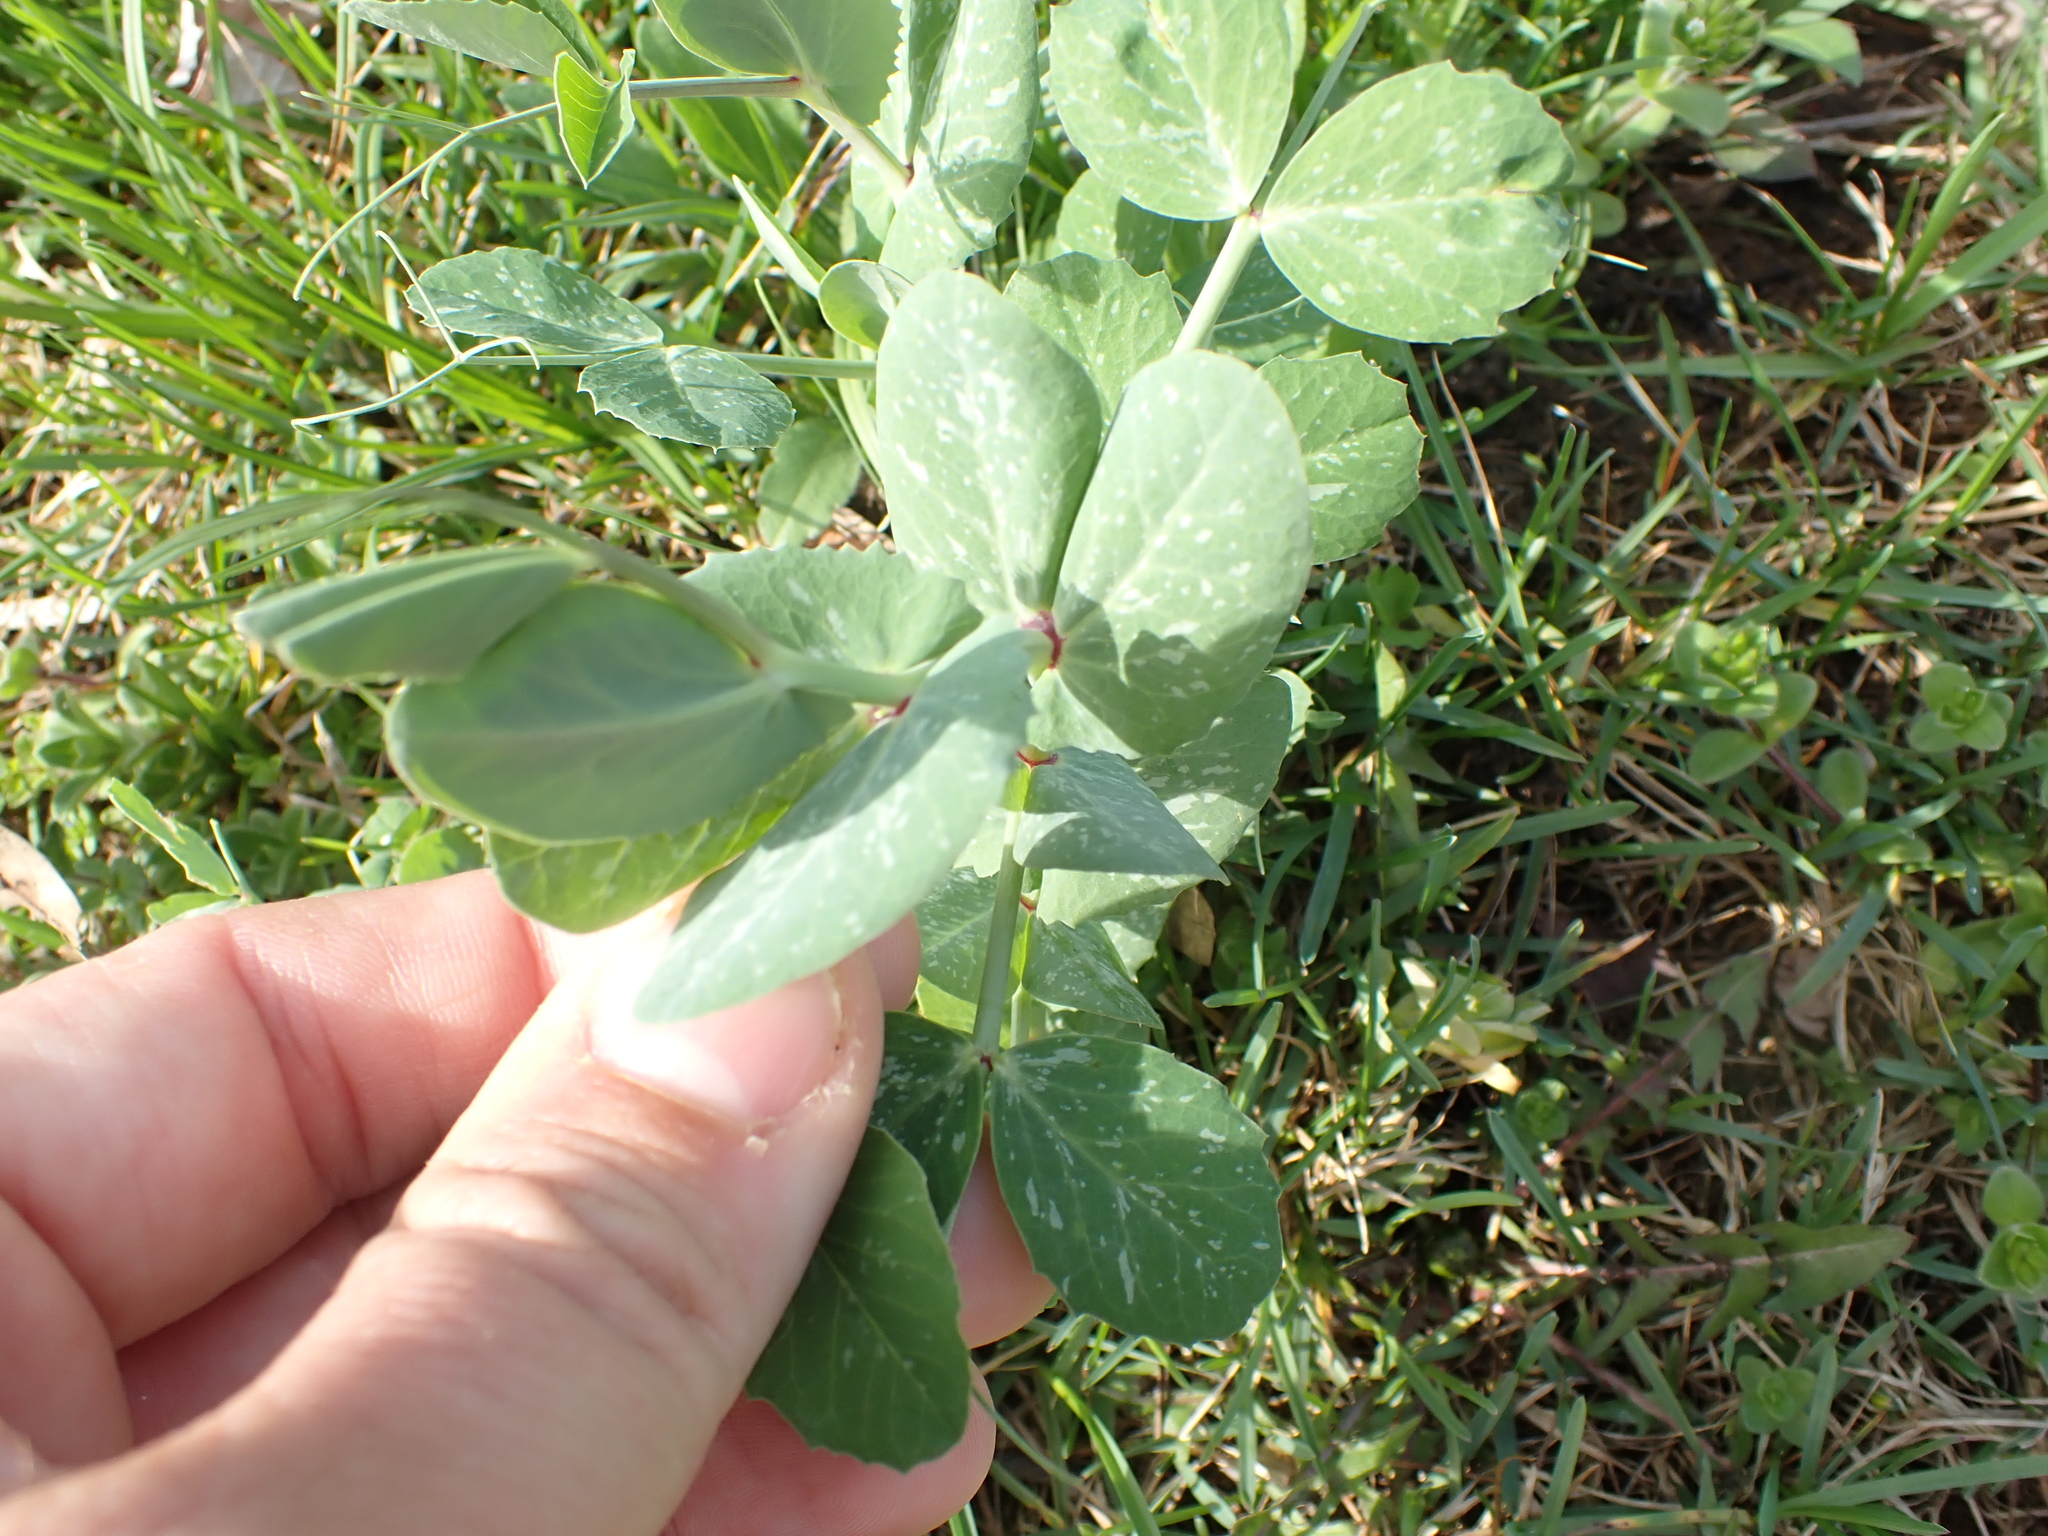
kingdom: Plantae
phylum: Tracheophyta
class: Magnoliopsida
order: Fabales
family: Fabaceae
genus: Lathyrus
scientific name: Lathyrus oleraceus
